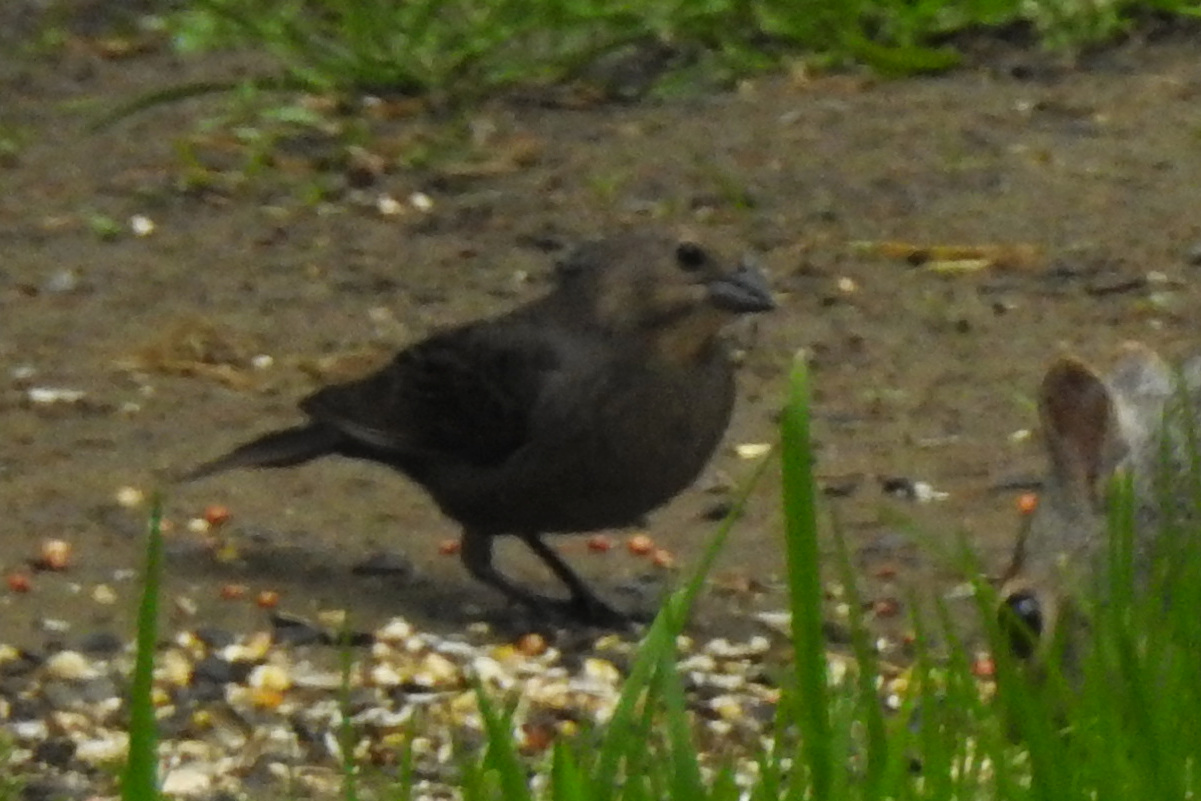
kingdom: Animalia
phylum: Chordata
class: Aves
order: Passeriformes
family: Icteridae
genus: Molothrus
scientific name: Molothrus ater
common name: Brown-headed cowbird
